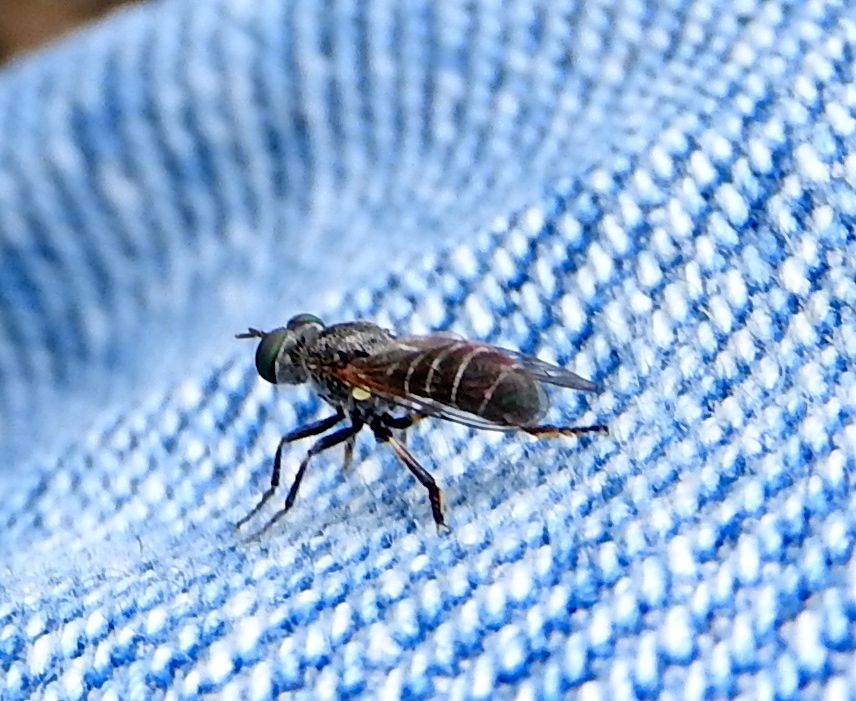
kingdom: Animalia
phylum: Arthropoda
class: Insecta
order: Diptera
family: Asilidae
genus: Atomosia
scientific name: Atomosia
